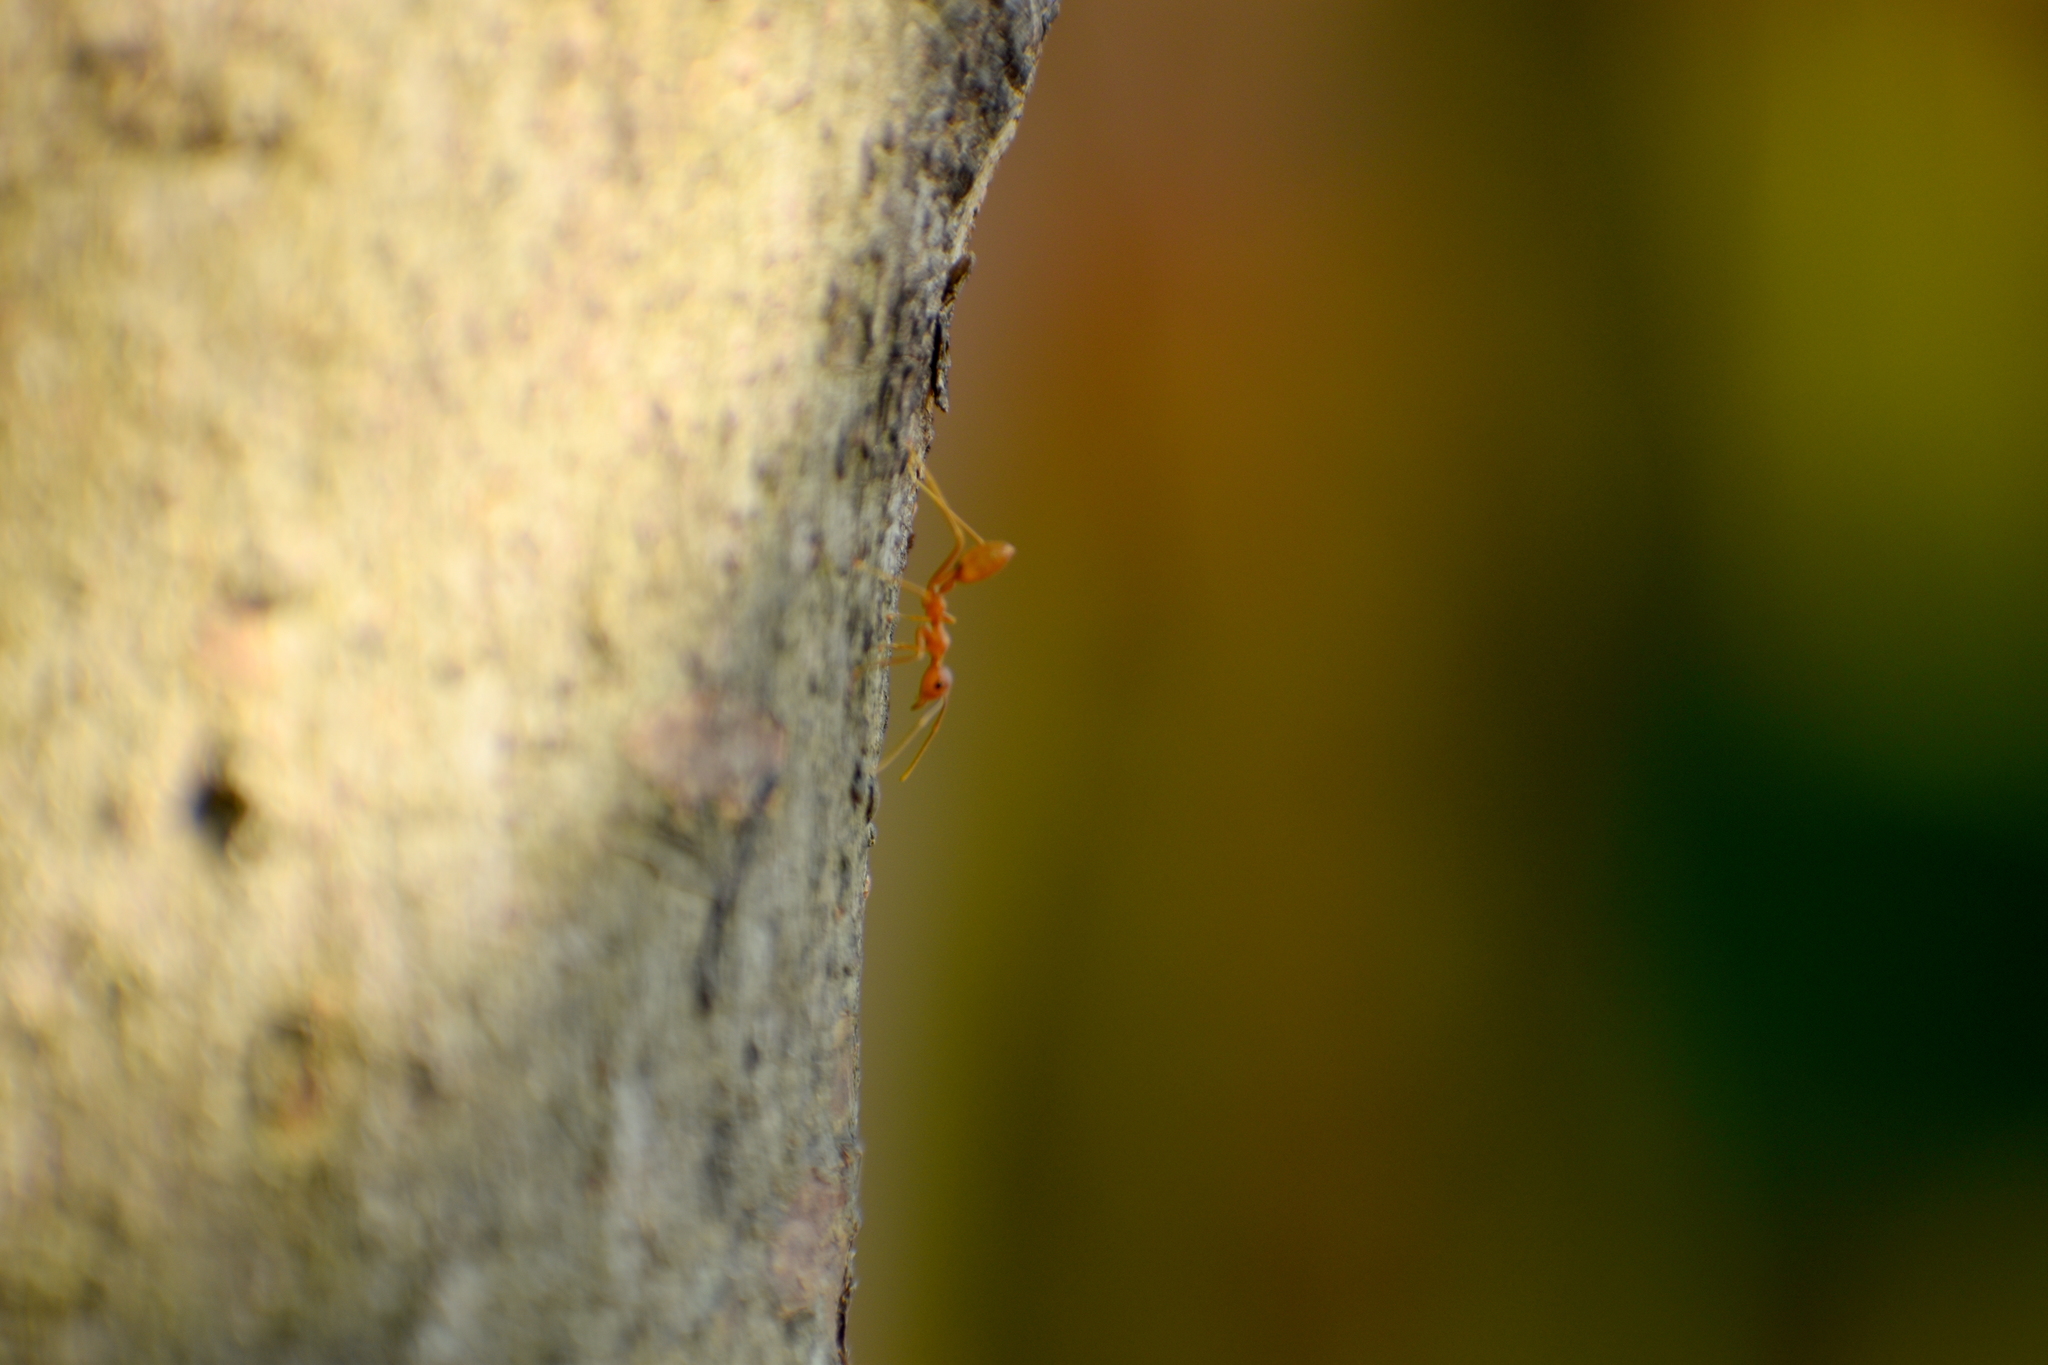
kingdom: Animalia
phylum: Arthropoda
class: Insecta
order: Hymenoptera
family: Formicidae
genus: Oecophylla
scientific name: Oecophylla smaragdina
